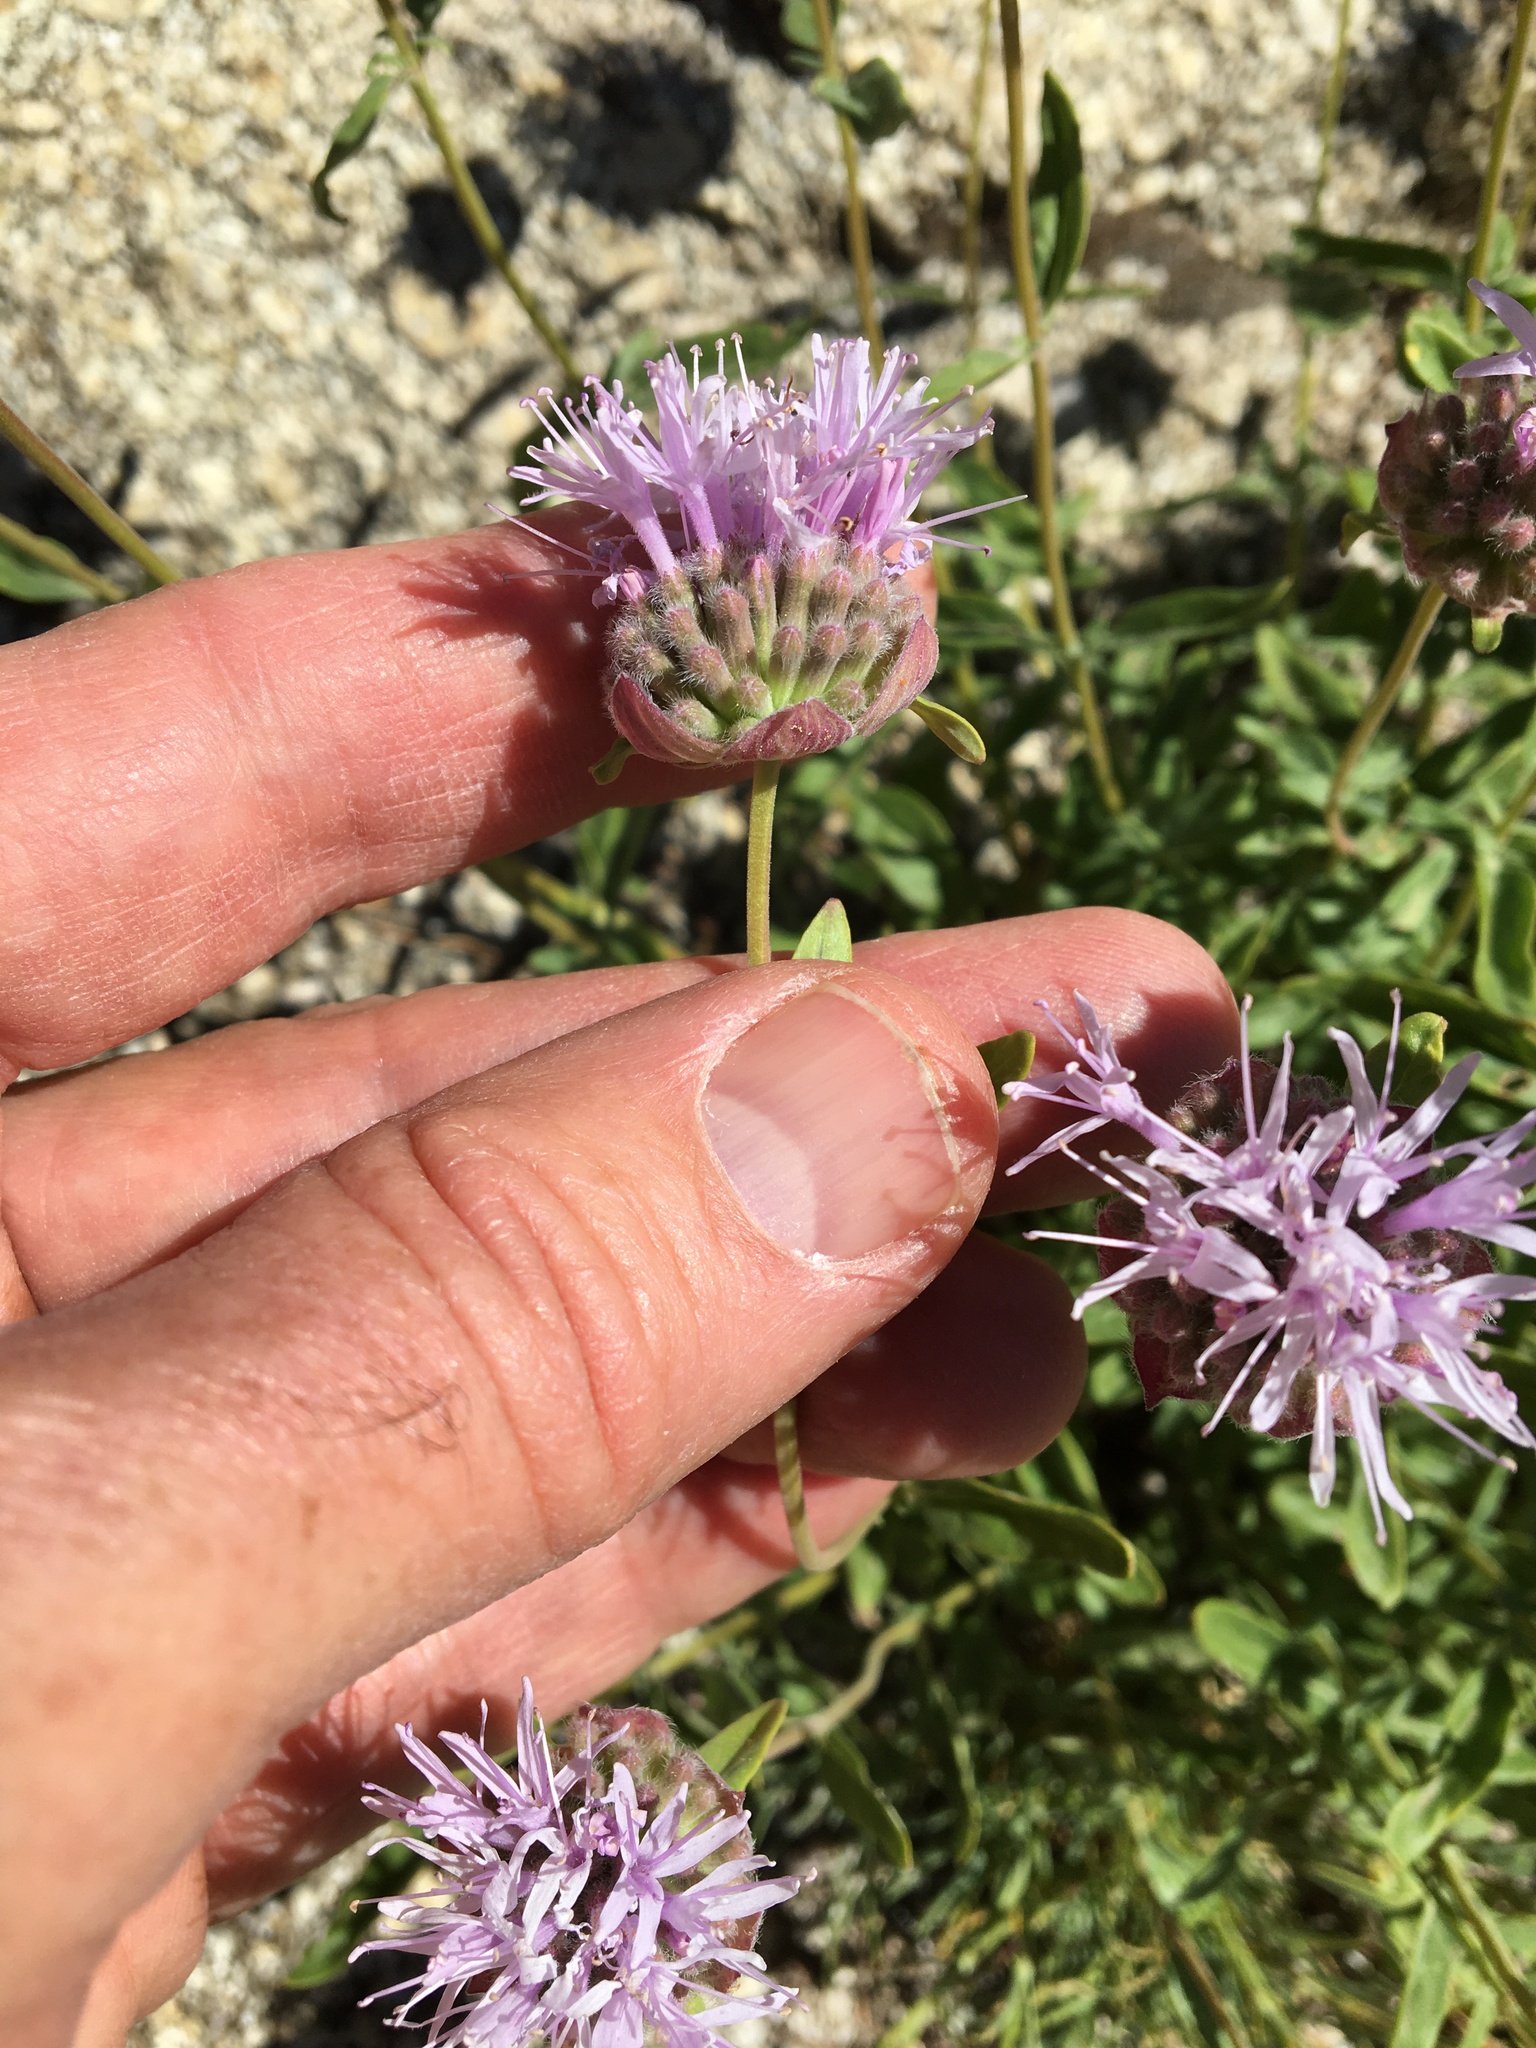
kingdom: Plantae
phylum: Tracheophyta
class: Magnoliopsida
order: Lamiales
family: Lamiaceae
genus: Monardella
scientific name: Monardella odoratissima
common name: Pacific monardella
